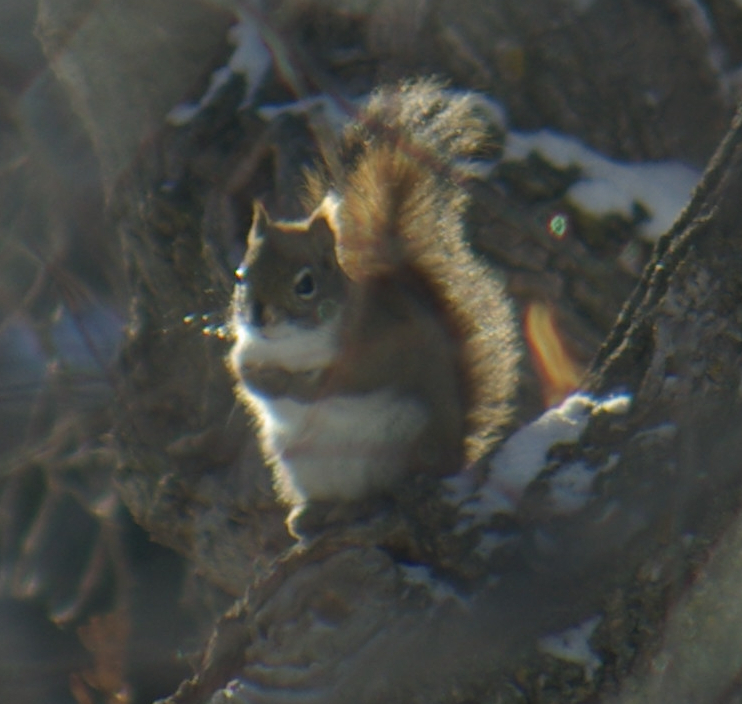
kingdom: Animalia
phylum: Chordata
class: Mammalia
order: Rodentia
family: Sciuridae
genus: Tamiasciurus
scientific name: Tamiasciurus hudsonicus
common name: Red squirrel
